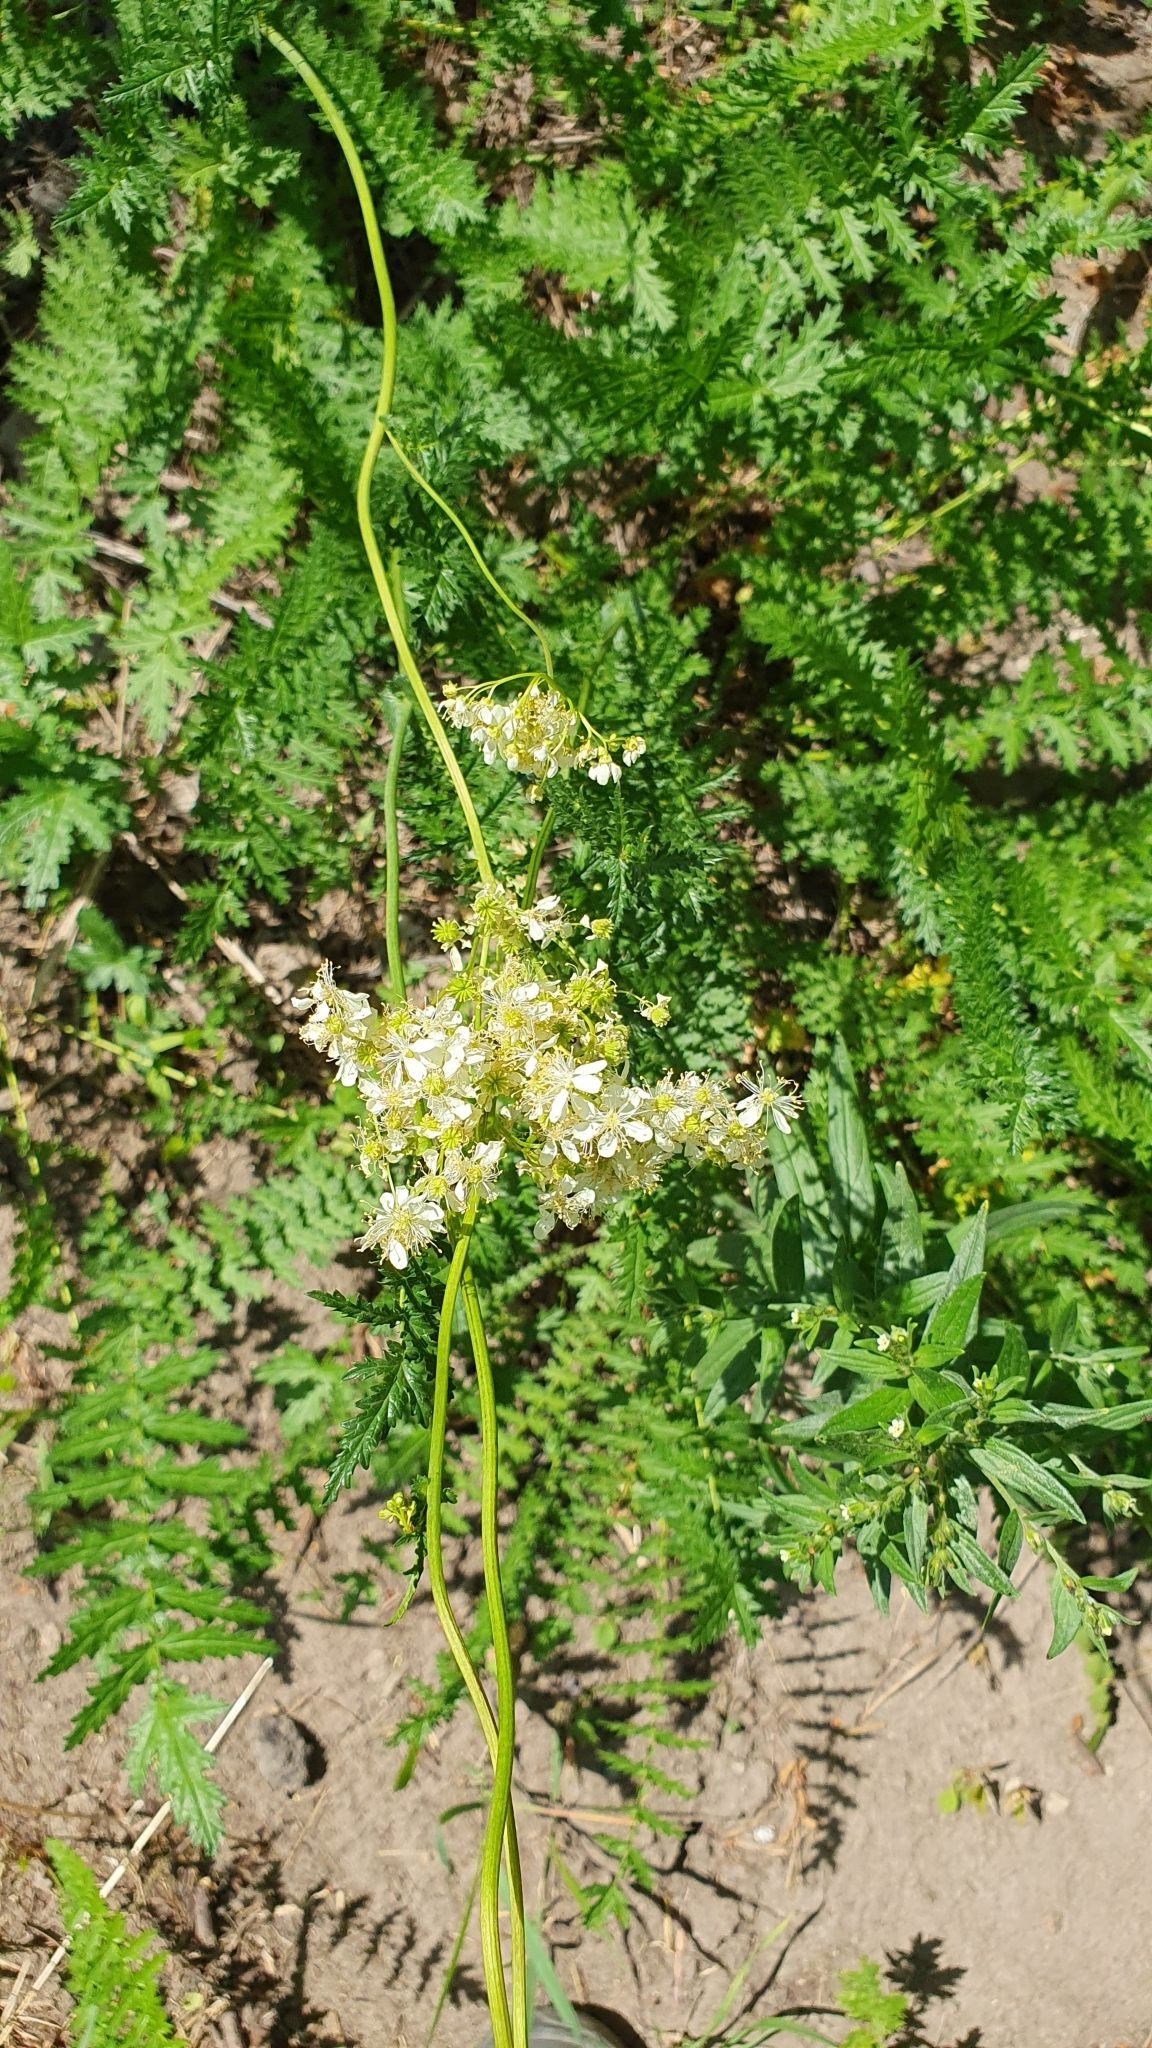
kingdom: Plantae
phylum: Tracheophyta
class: Magnoliopsida
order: Rosales
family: Rosaceae
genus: Filipendula
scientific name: Filipendula vulgaris
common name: Dropwort
